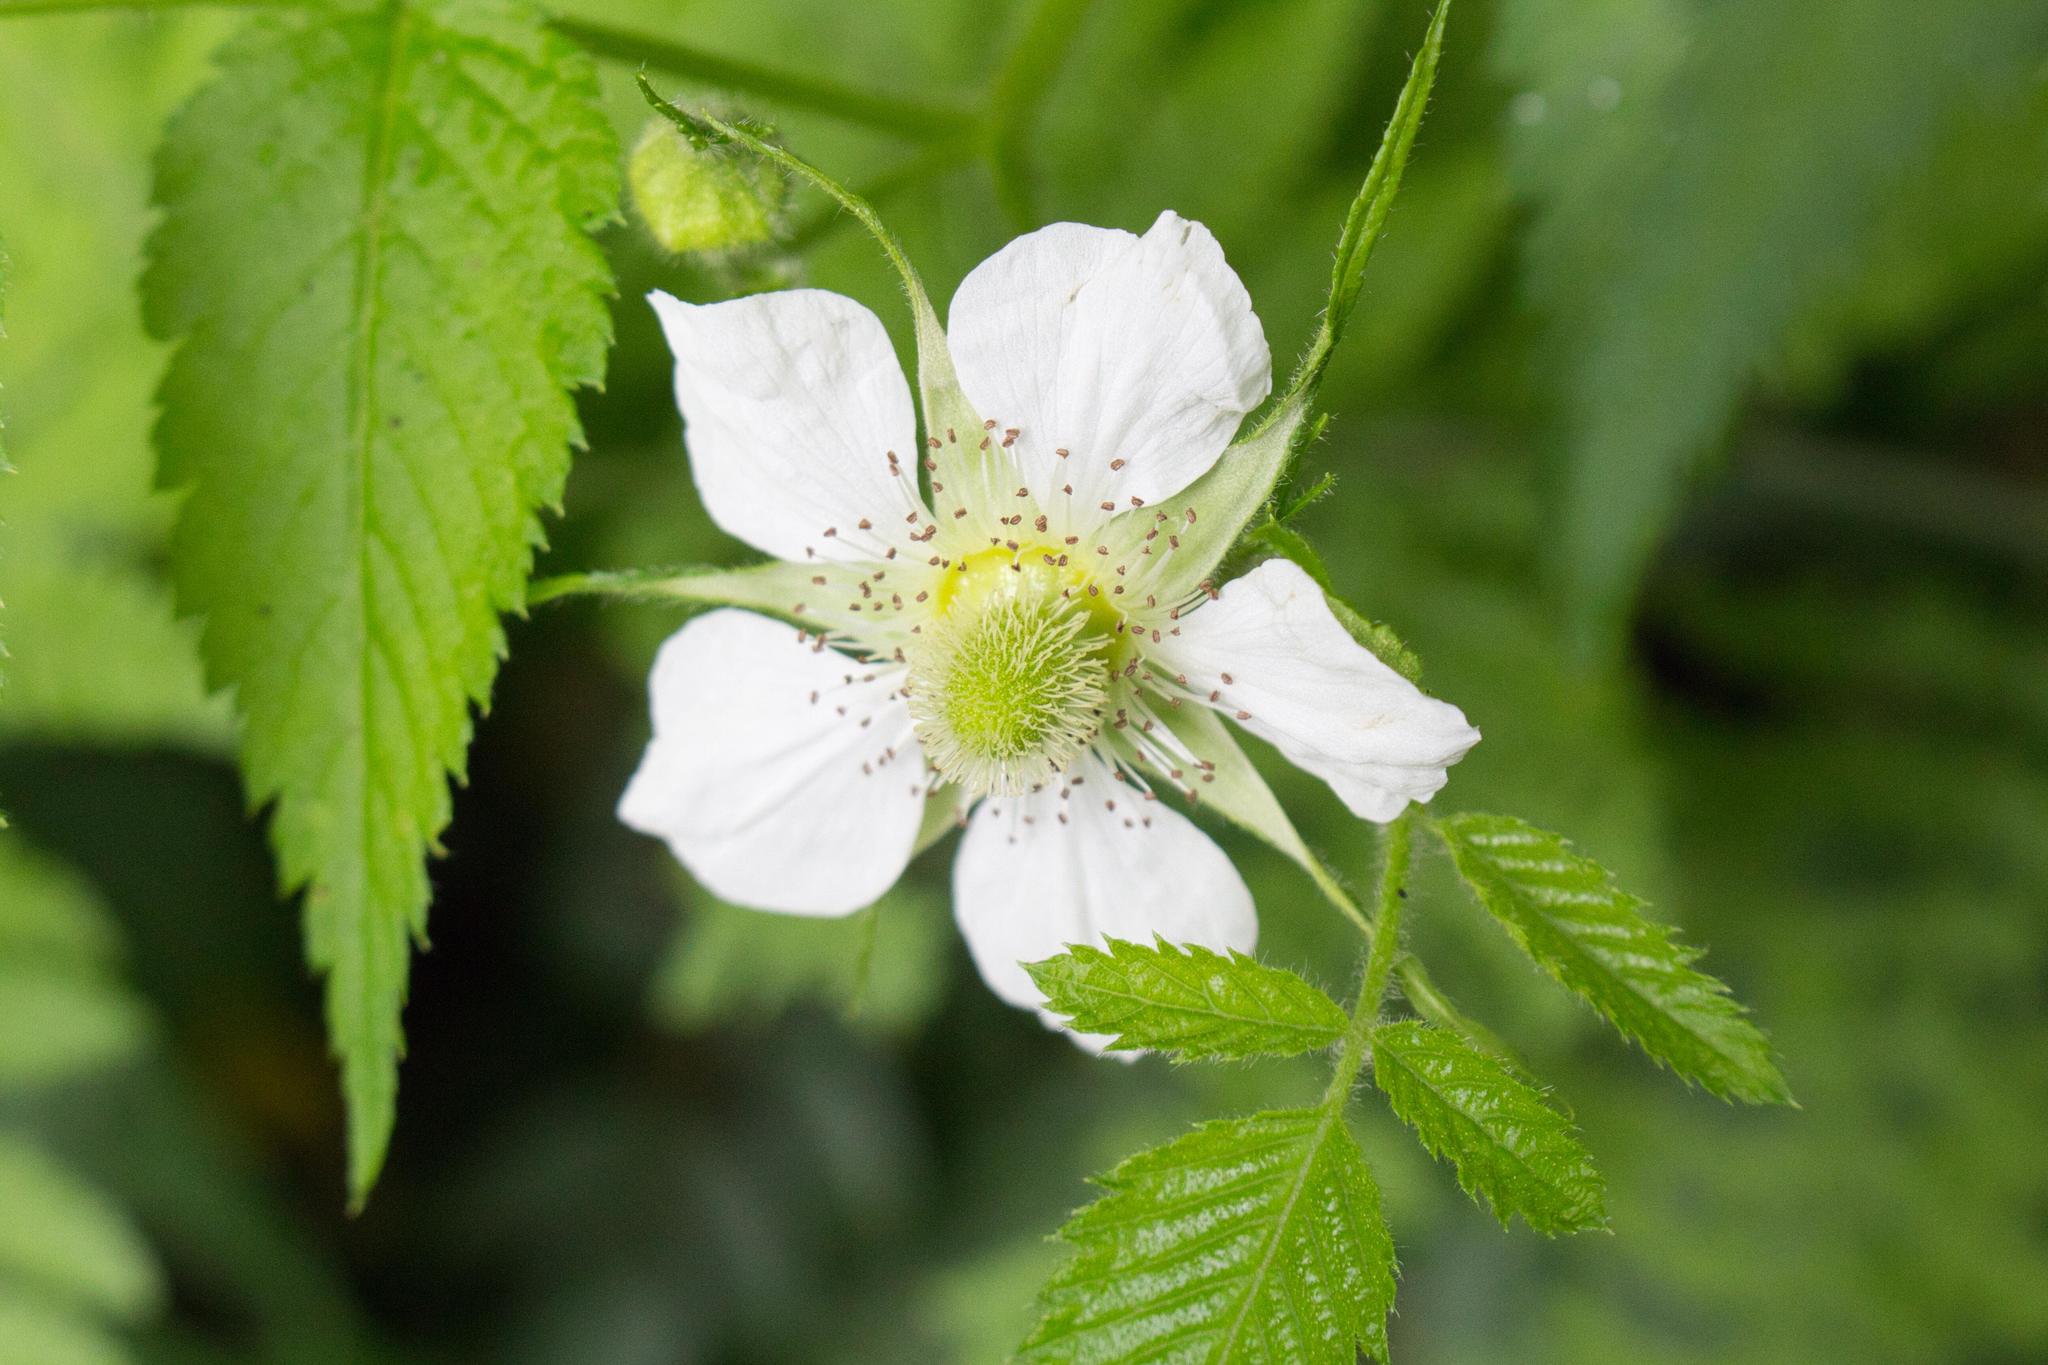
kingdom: Plantae
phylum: Tracheophyta
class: Magnoliopsida
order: Rosales
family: Rosaceae
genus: Rubus
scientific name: Rubus rosifolius
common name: Roseleaf raspberry
